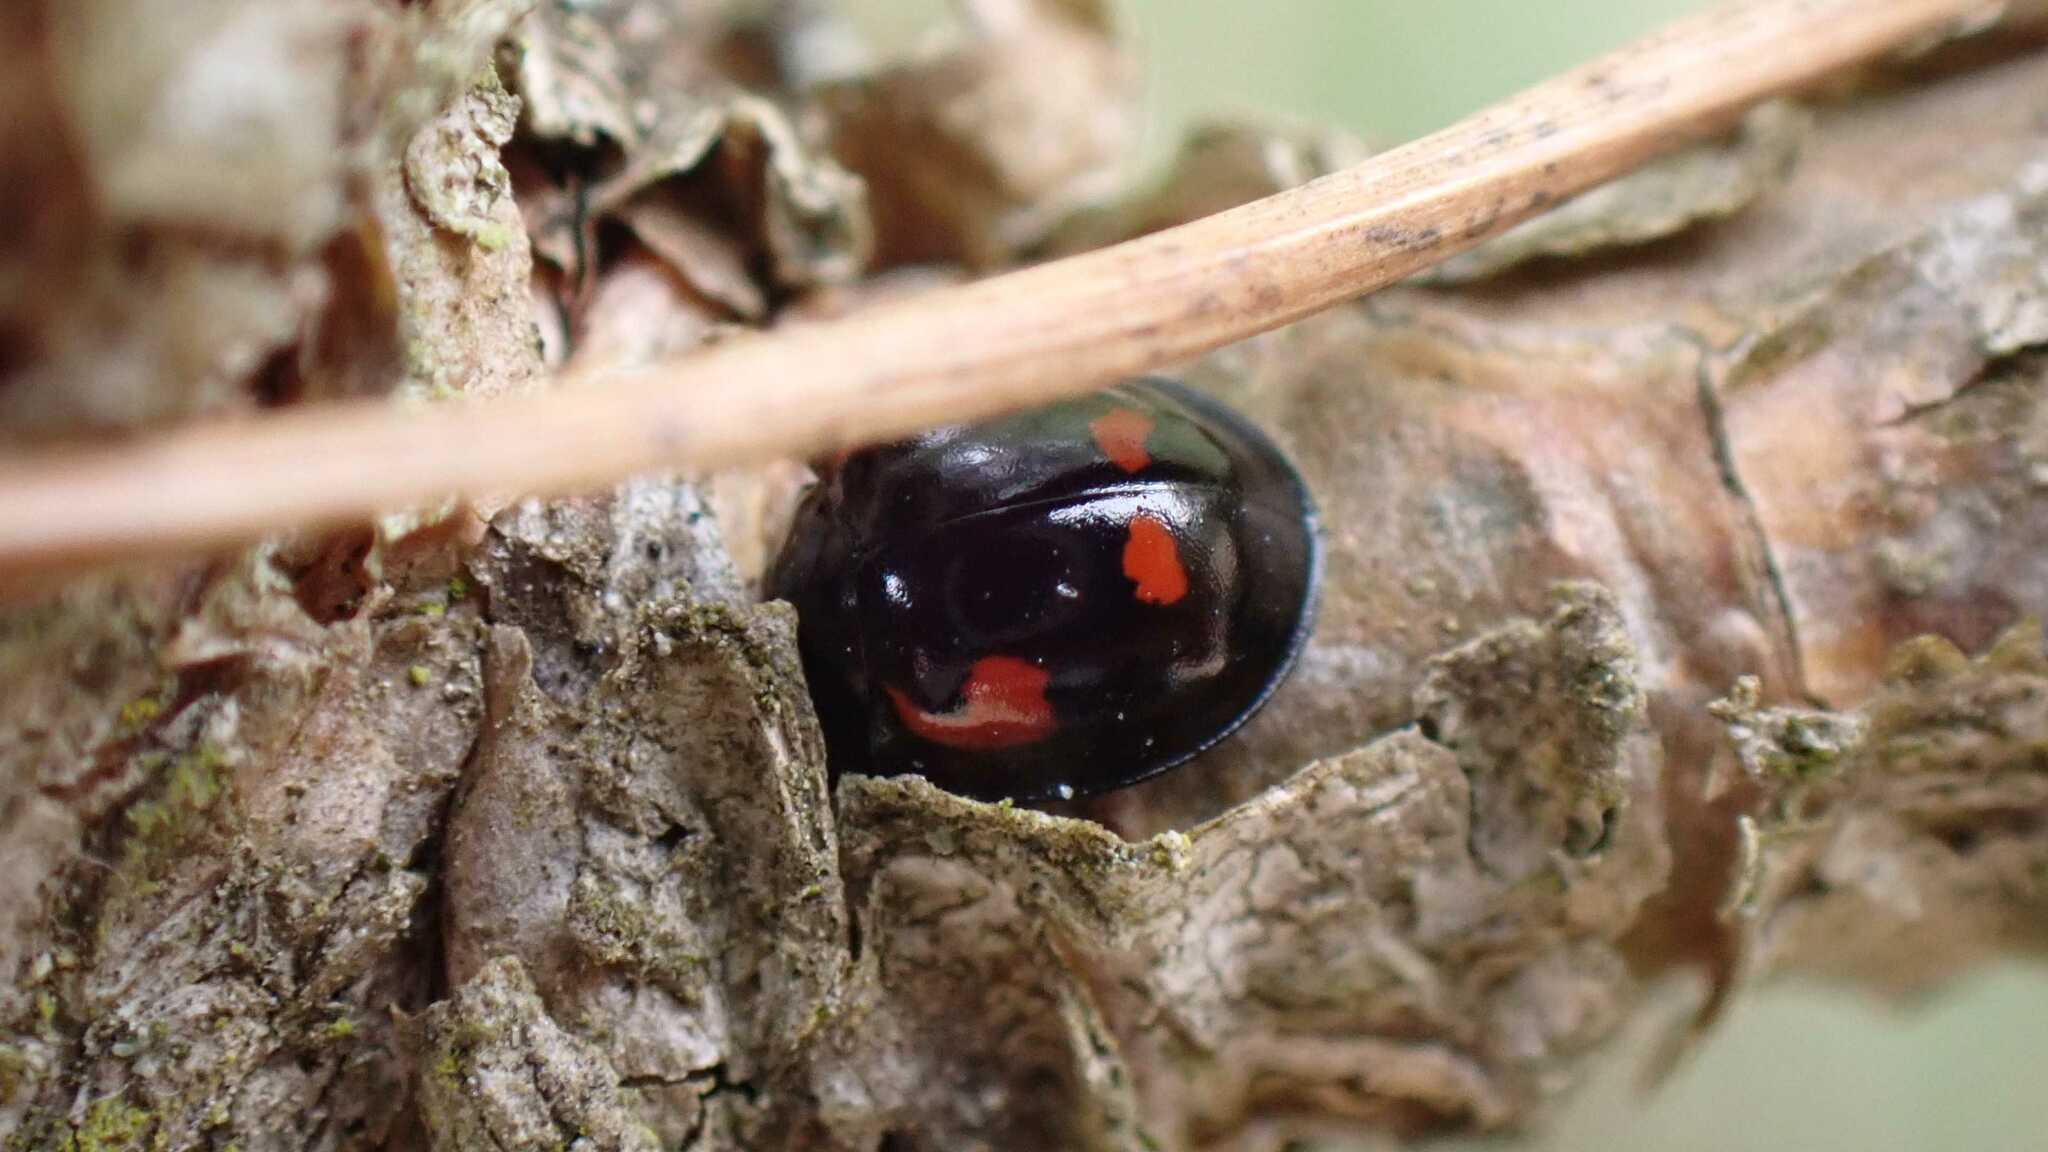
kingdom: Animalia
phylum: Arthropoda
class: Insecta
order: Coleoptera
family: Coccinellidae
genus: Brumus
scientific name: Brumus quadripustulatus
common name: Ladybird beetle
